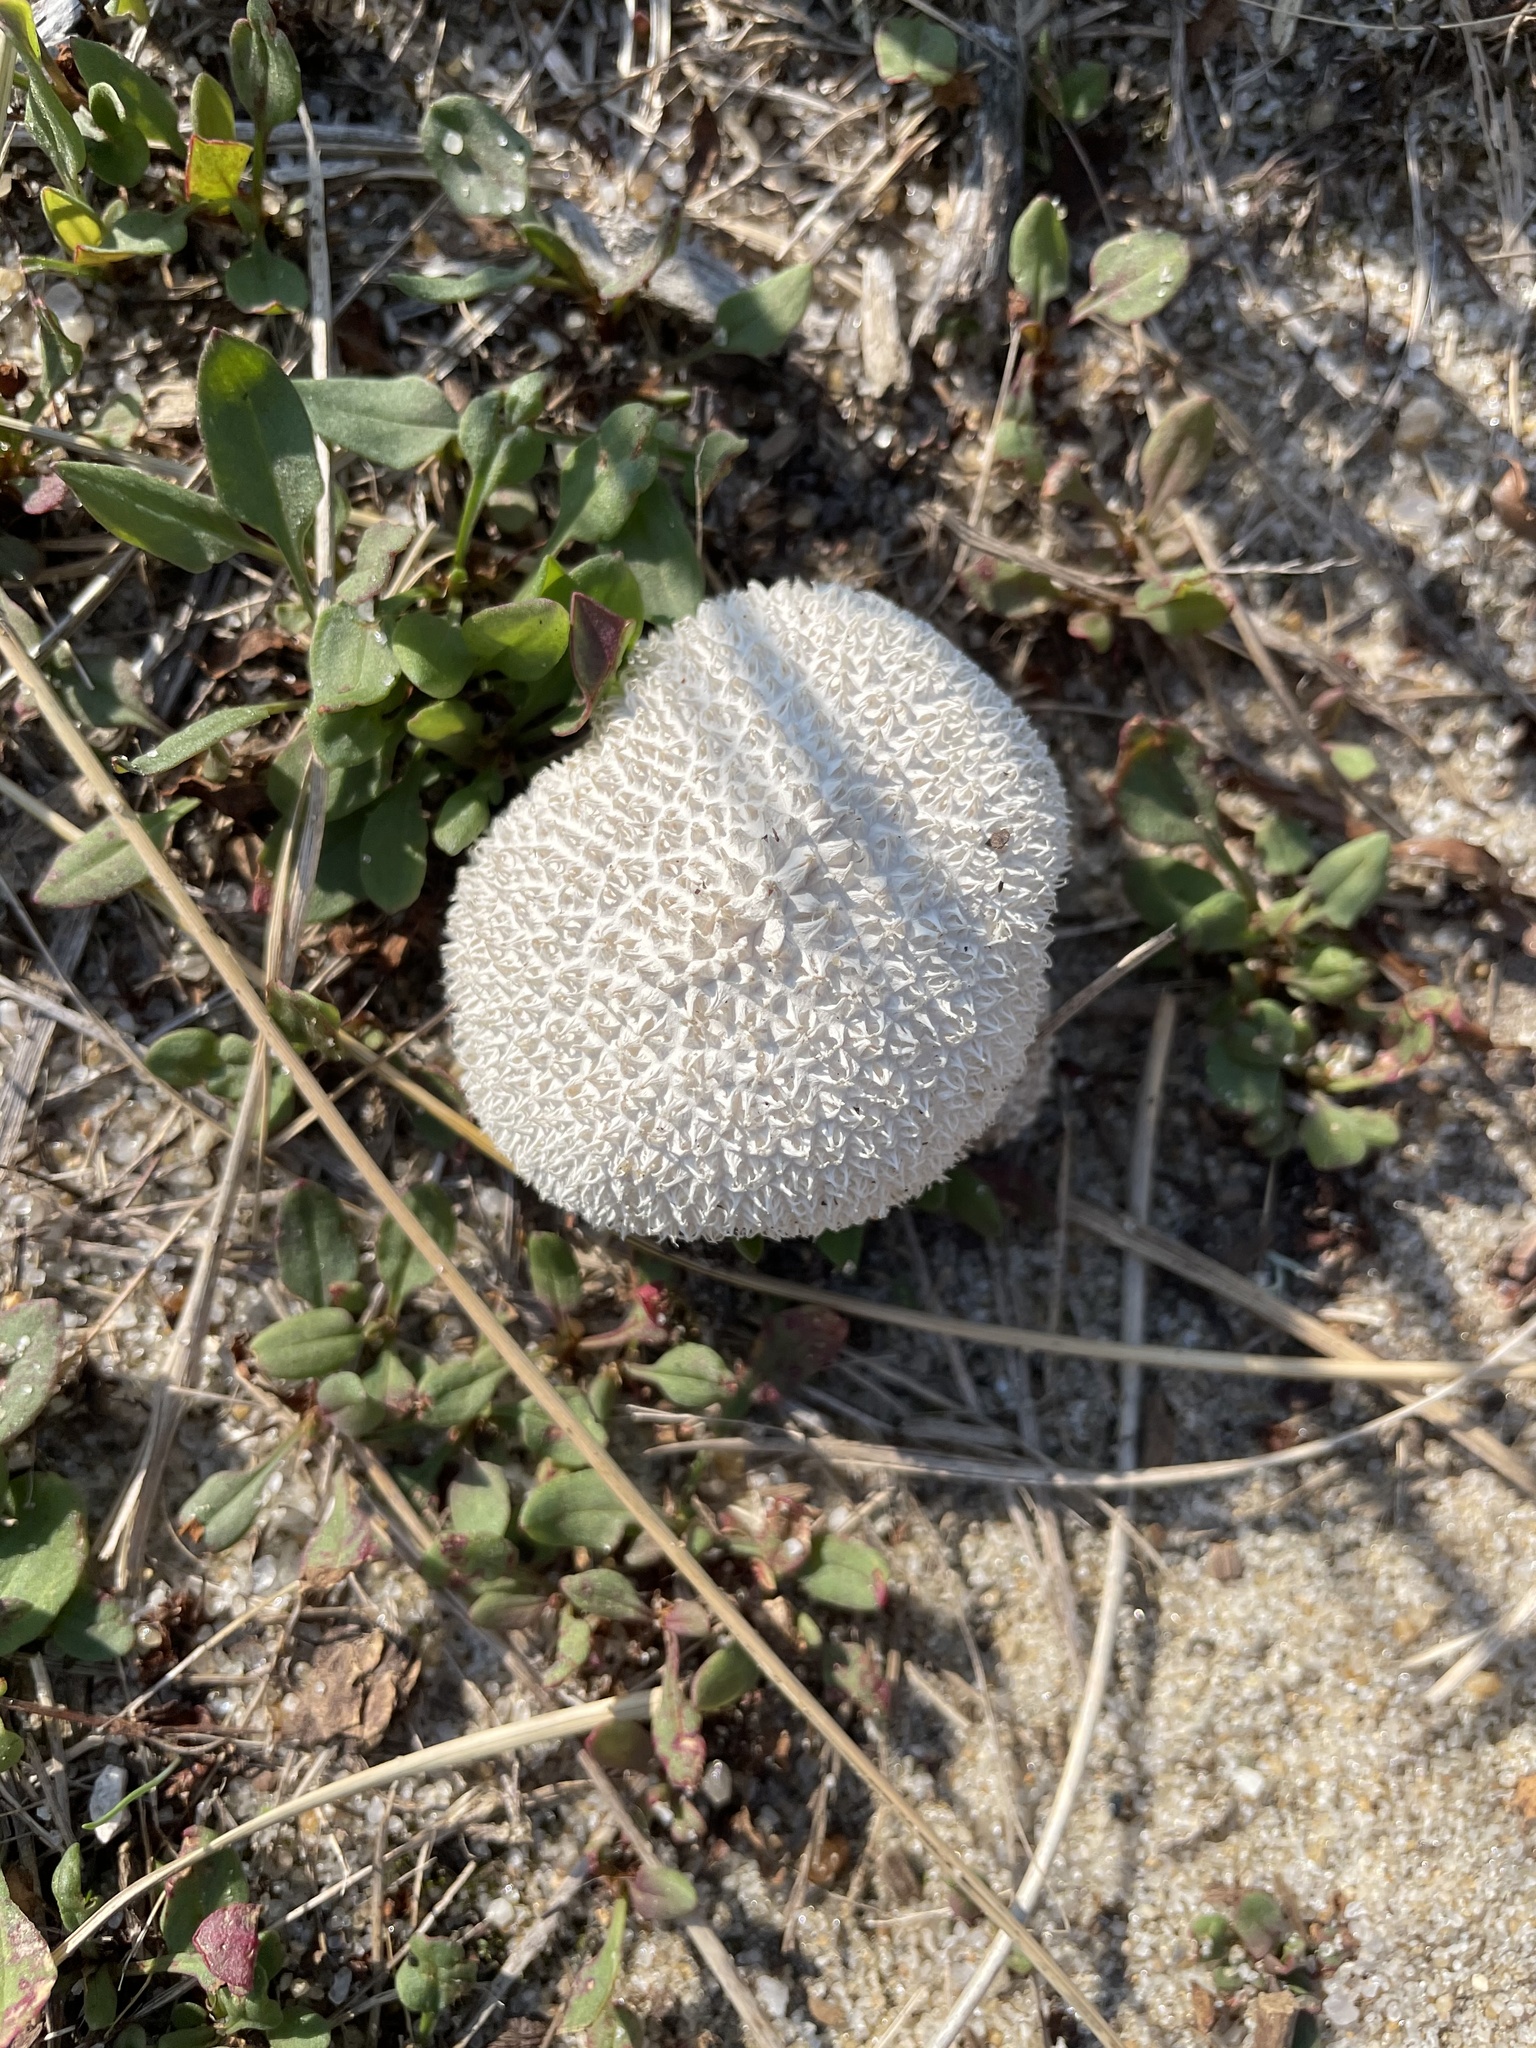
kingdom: Fungi
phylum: Basidiomycota
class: Agaricomycetes
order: Agaricales
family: Agaricaceae
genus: Lycoperdon
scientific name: Lycoperdon marginatum
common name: Peeling puffball
